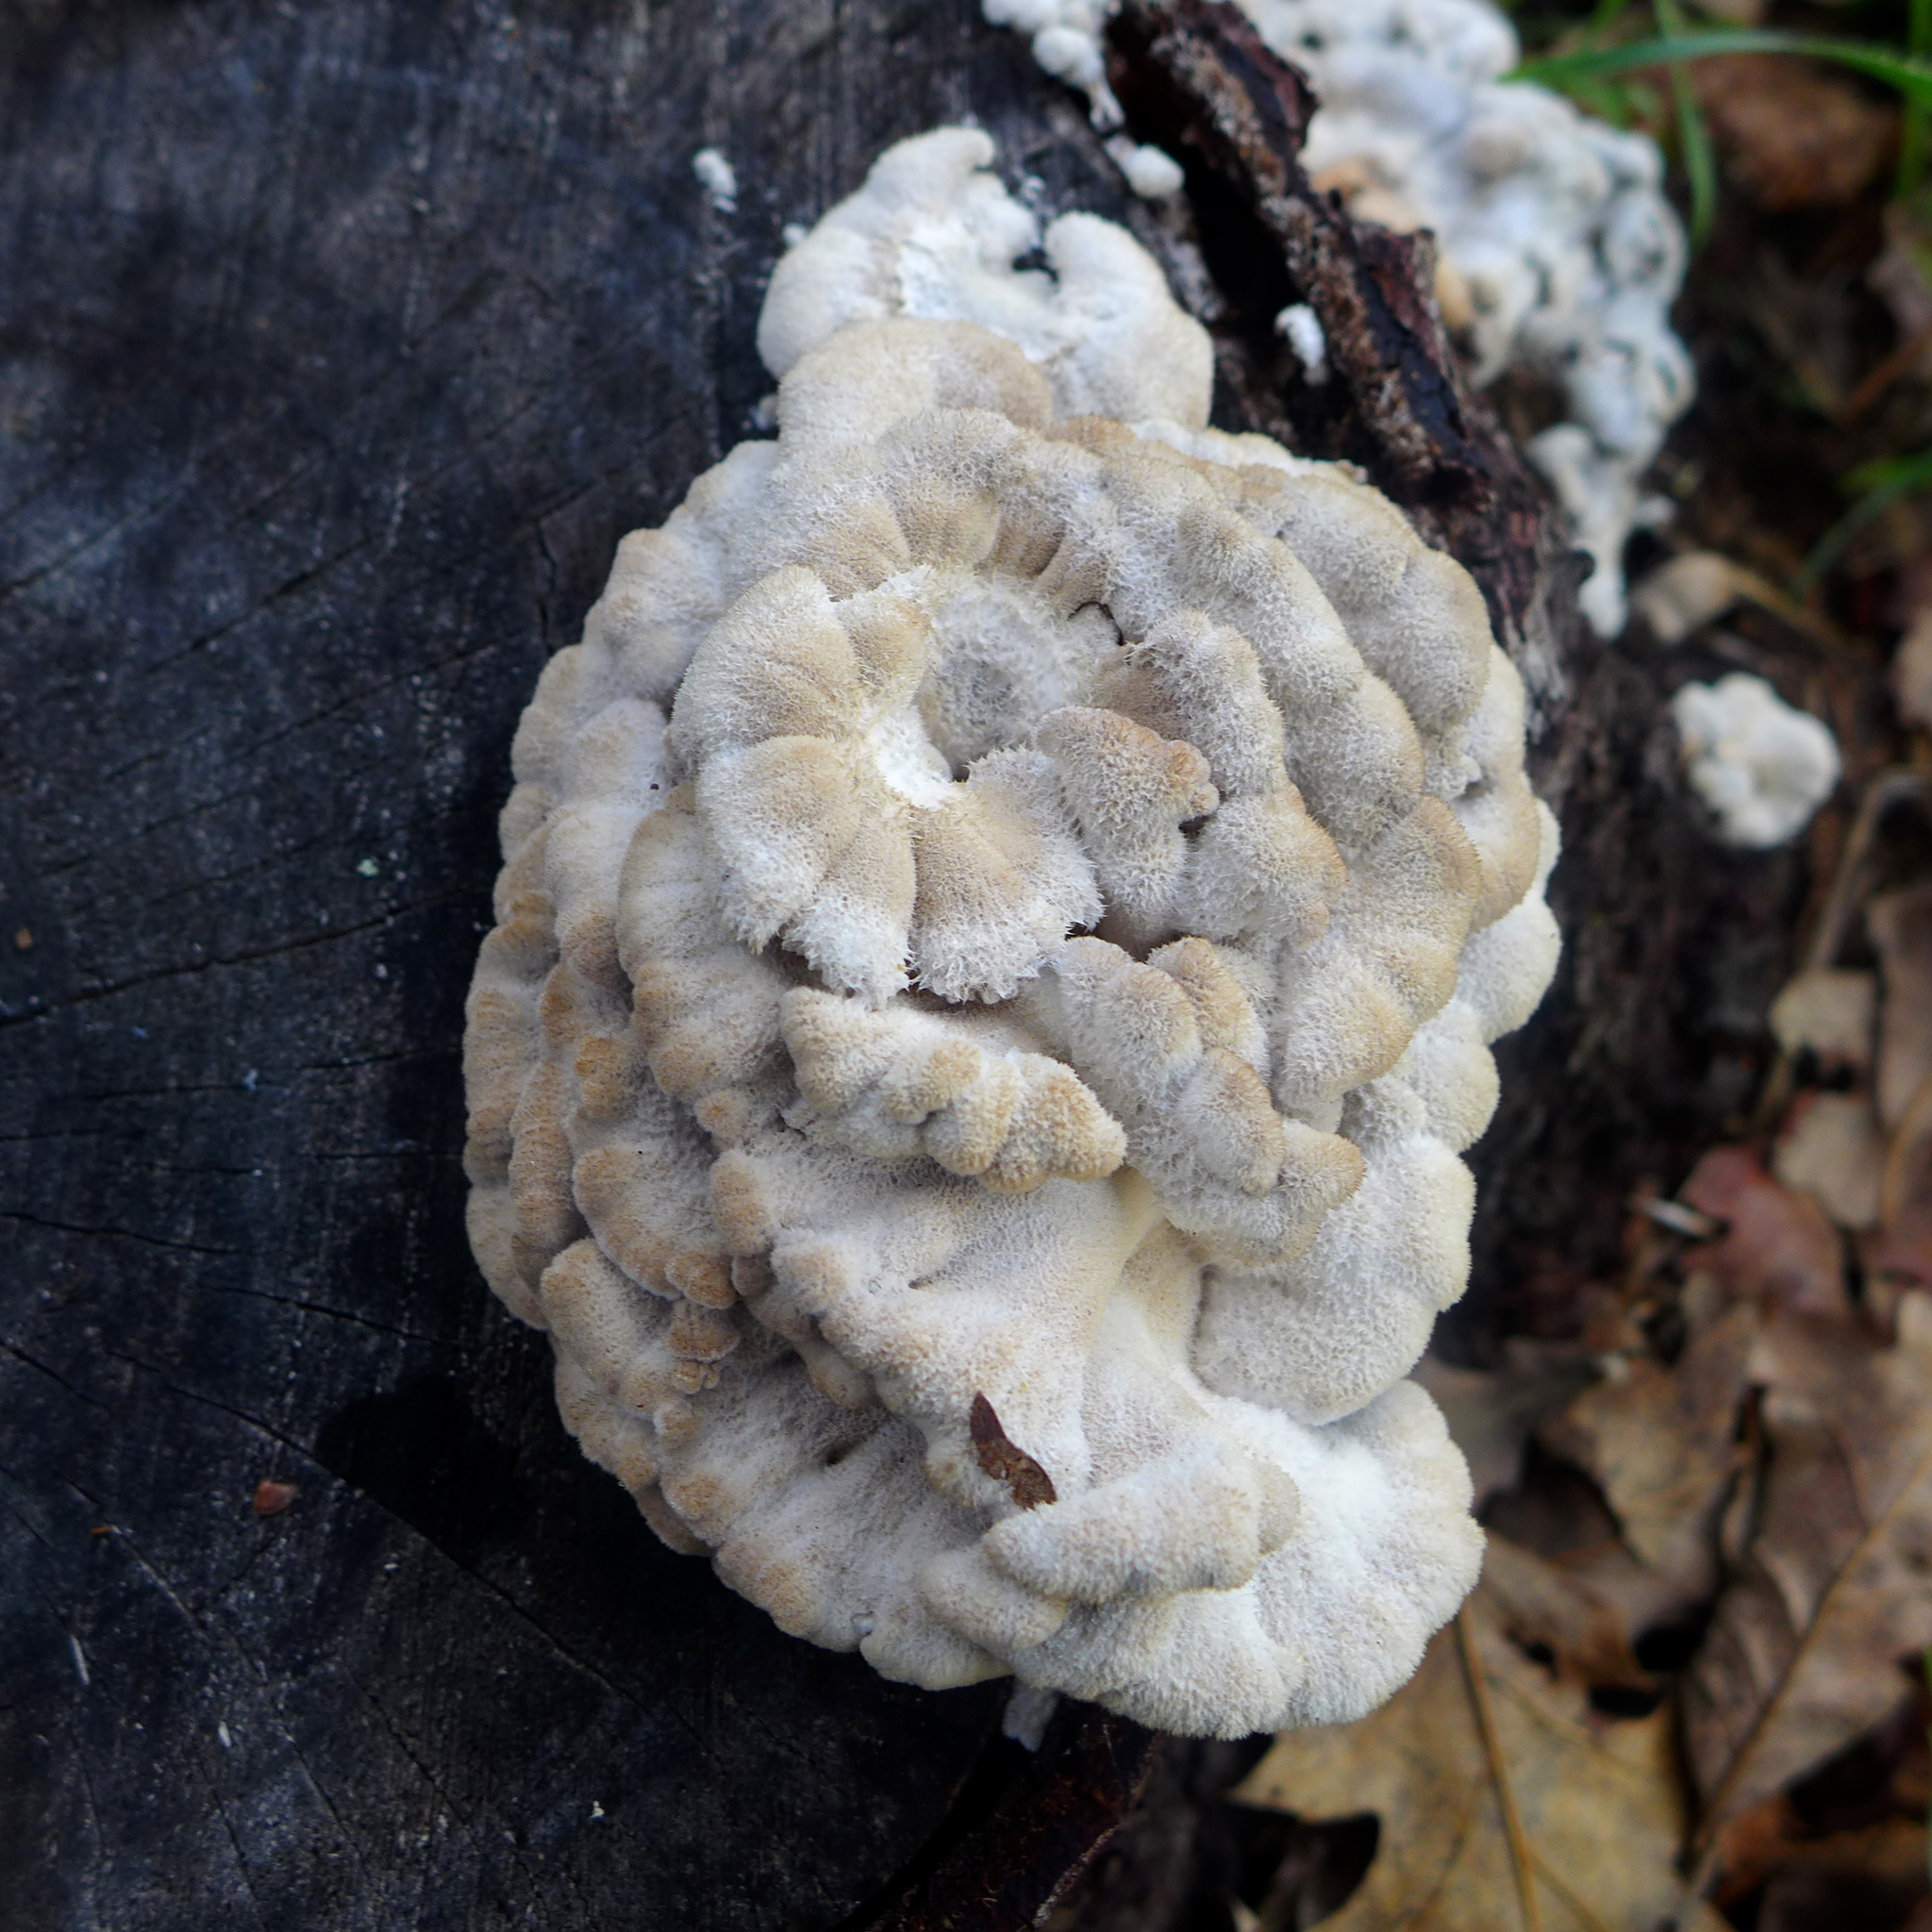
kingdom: Fungi
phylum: Basidiomycota
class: Agaricomycetes
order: Agaricales
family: Schizophyllaceae
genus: Schizophyllum
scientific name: Schizophyllum commune
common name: Common porecrust
